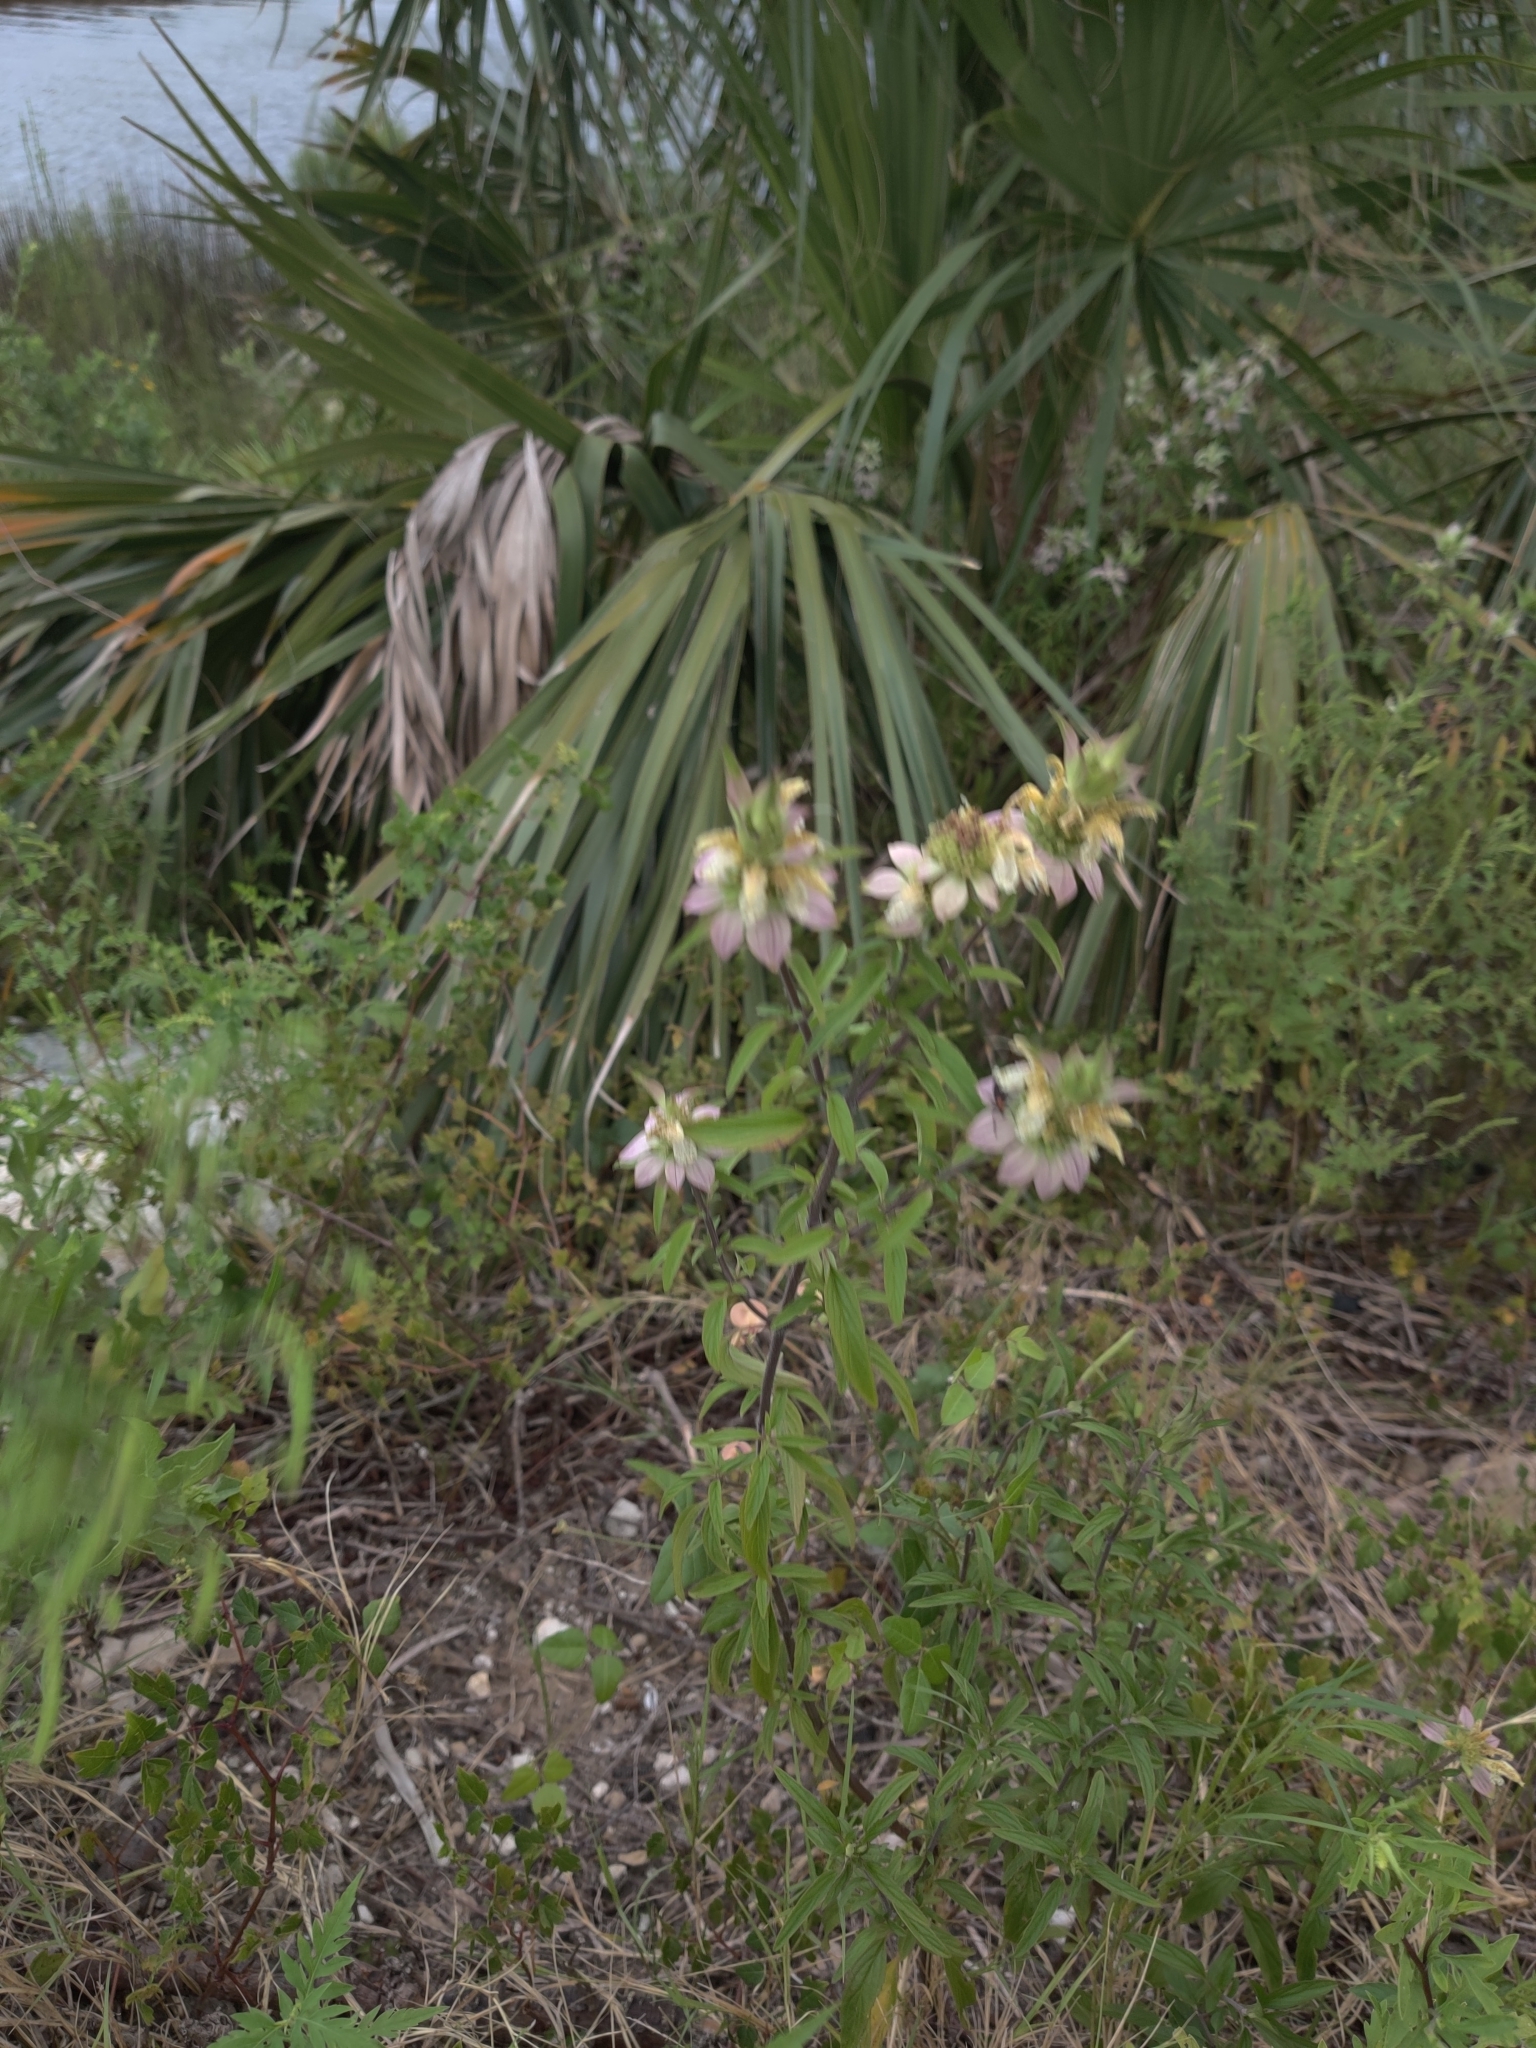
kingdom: Plantae
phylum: Tracheophyta
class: Magnoliopsida
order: Lamiales
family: Lamiaceae
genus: Monarda
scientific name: Monarda punctata
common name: Dotted monarda
